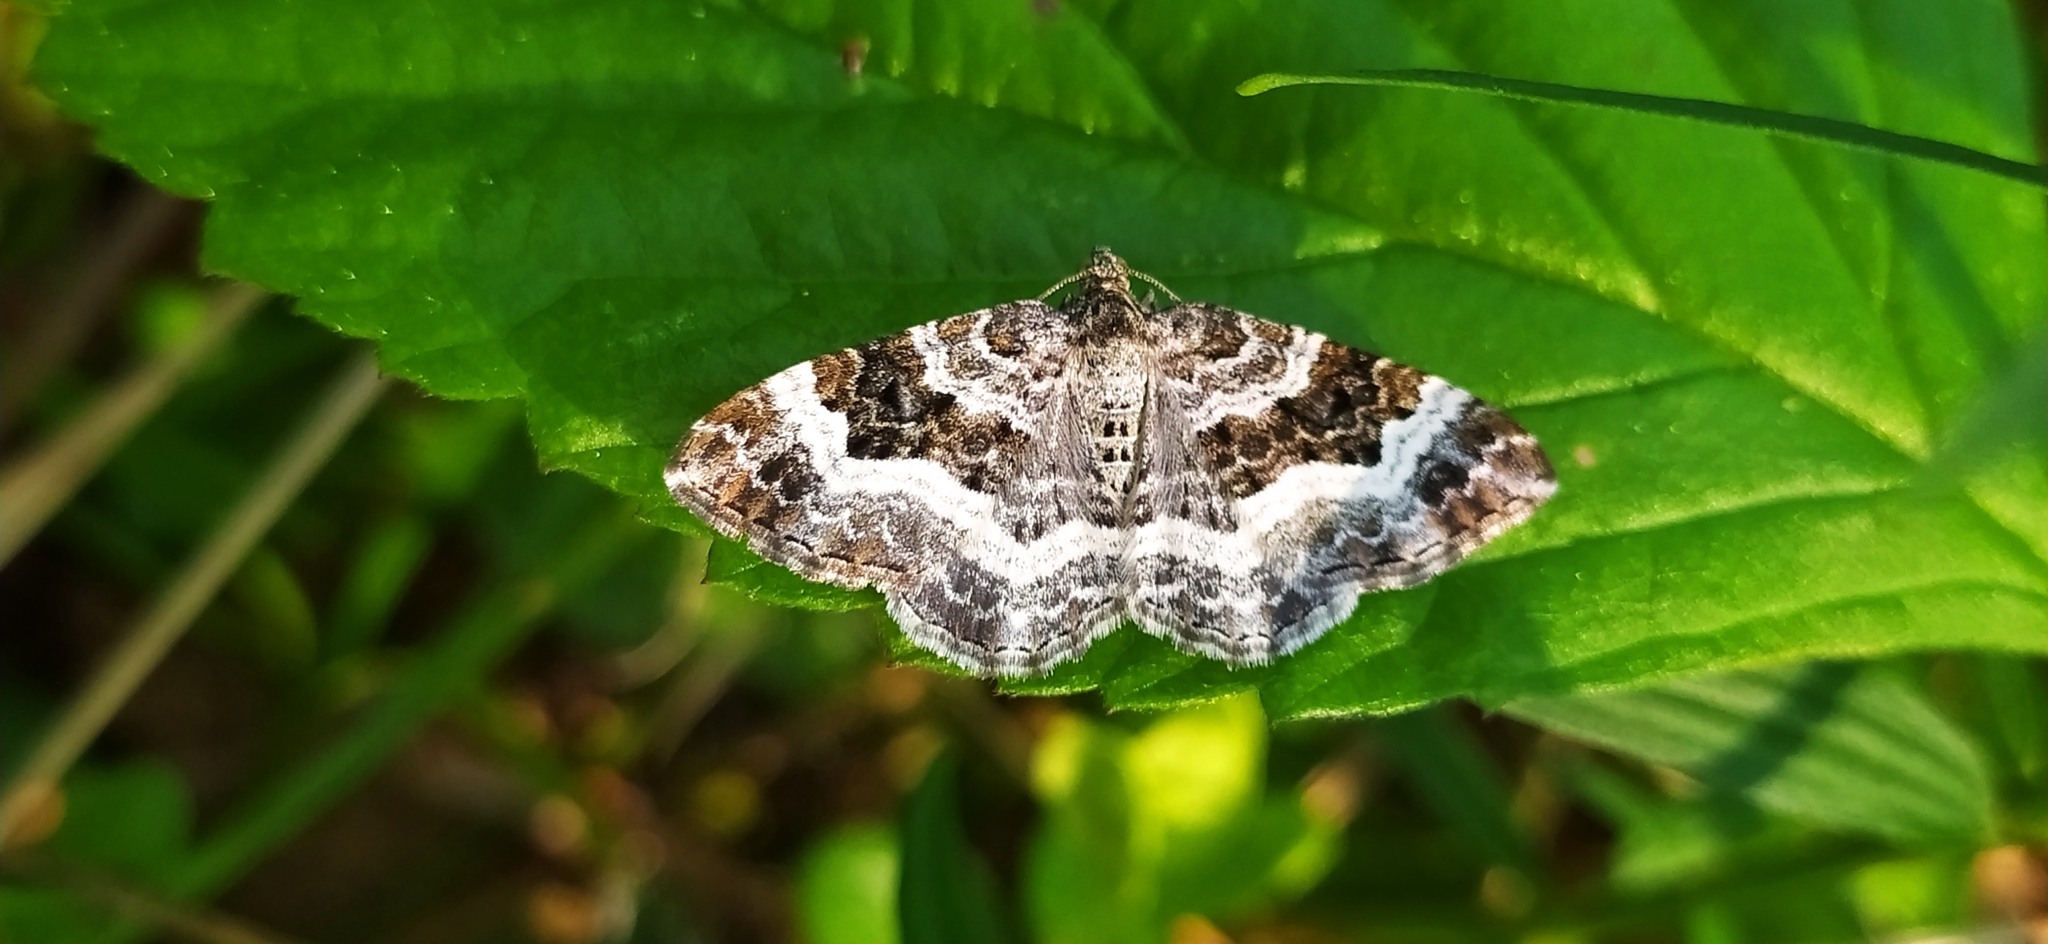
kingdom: Animalia
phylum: Arthropoda
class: Insecta
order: Lepidoptera
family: Geometridae
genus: Epirrhoe
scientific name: Epirrhoe alternata
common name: Common carpet
